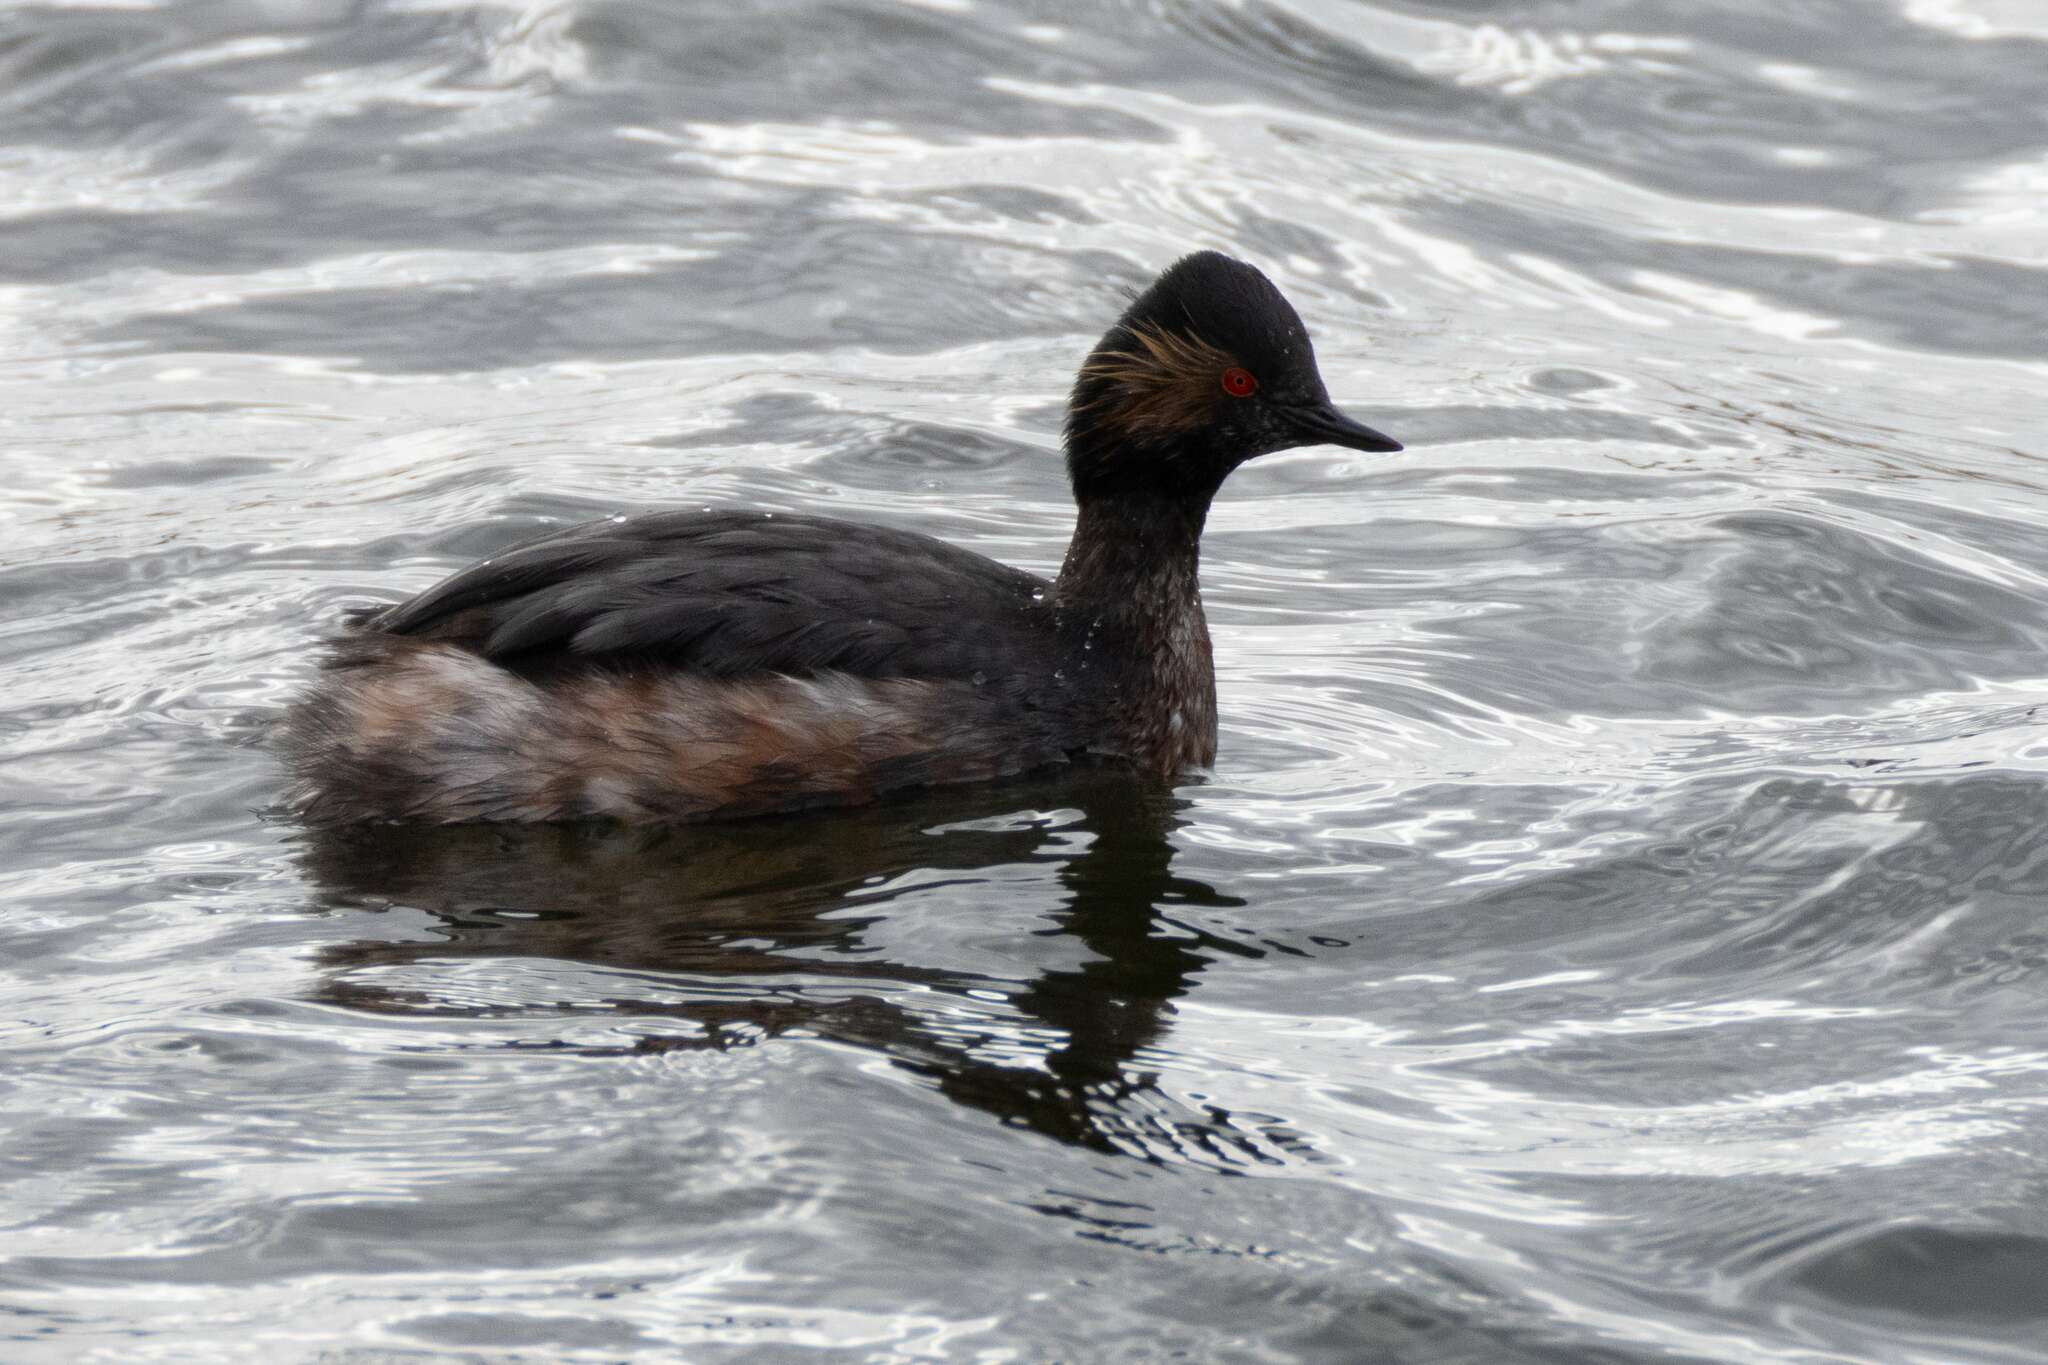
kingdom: Animalia
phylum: Chordata
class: Aves
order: Podicipediformes
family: Podicipedidae
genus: Podiceps
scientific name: Podiceps nigricollis
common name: Black-necked grebe
